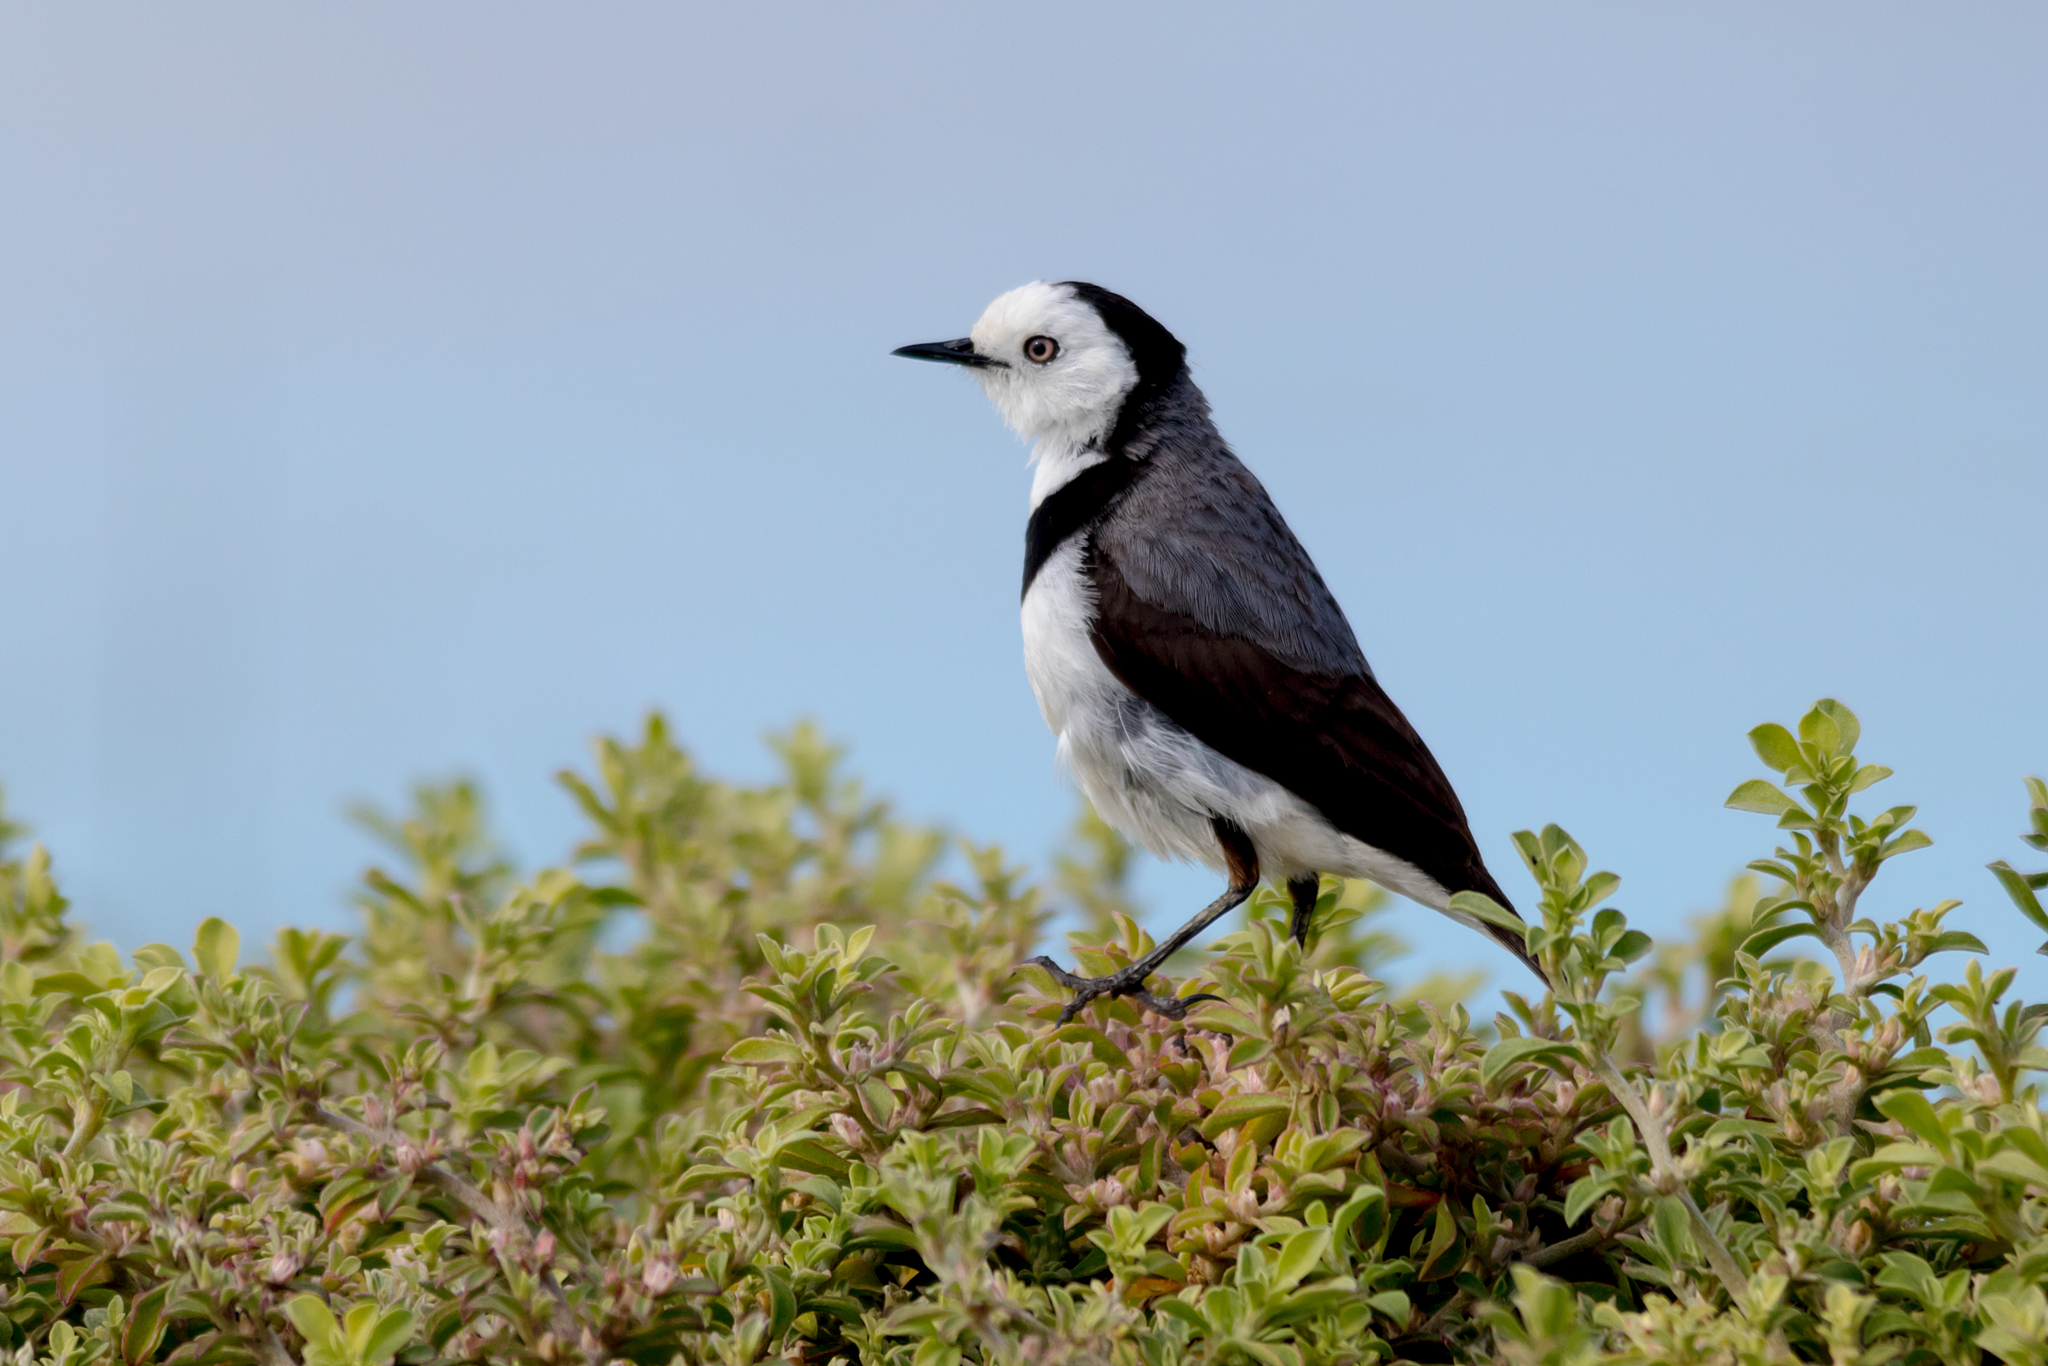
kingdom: Animalia
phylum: Chordata
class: Aves
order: Passeriformes
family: Meliphagidae
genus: Epthianura
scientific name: Epthianura albifrons
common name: White-fronted chat
